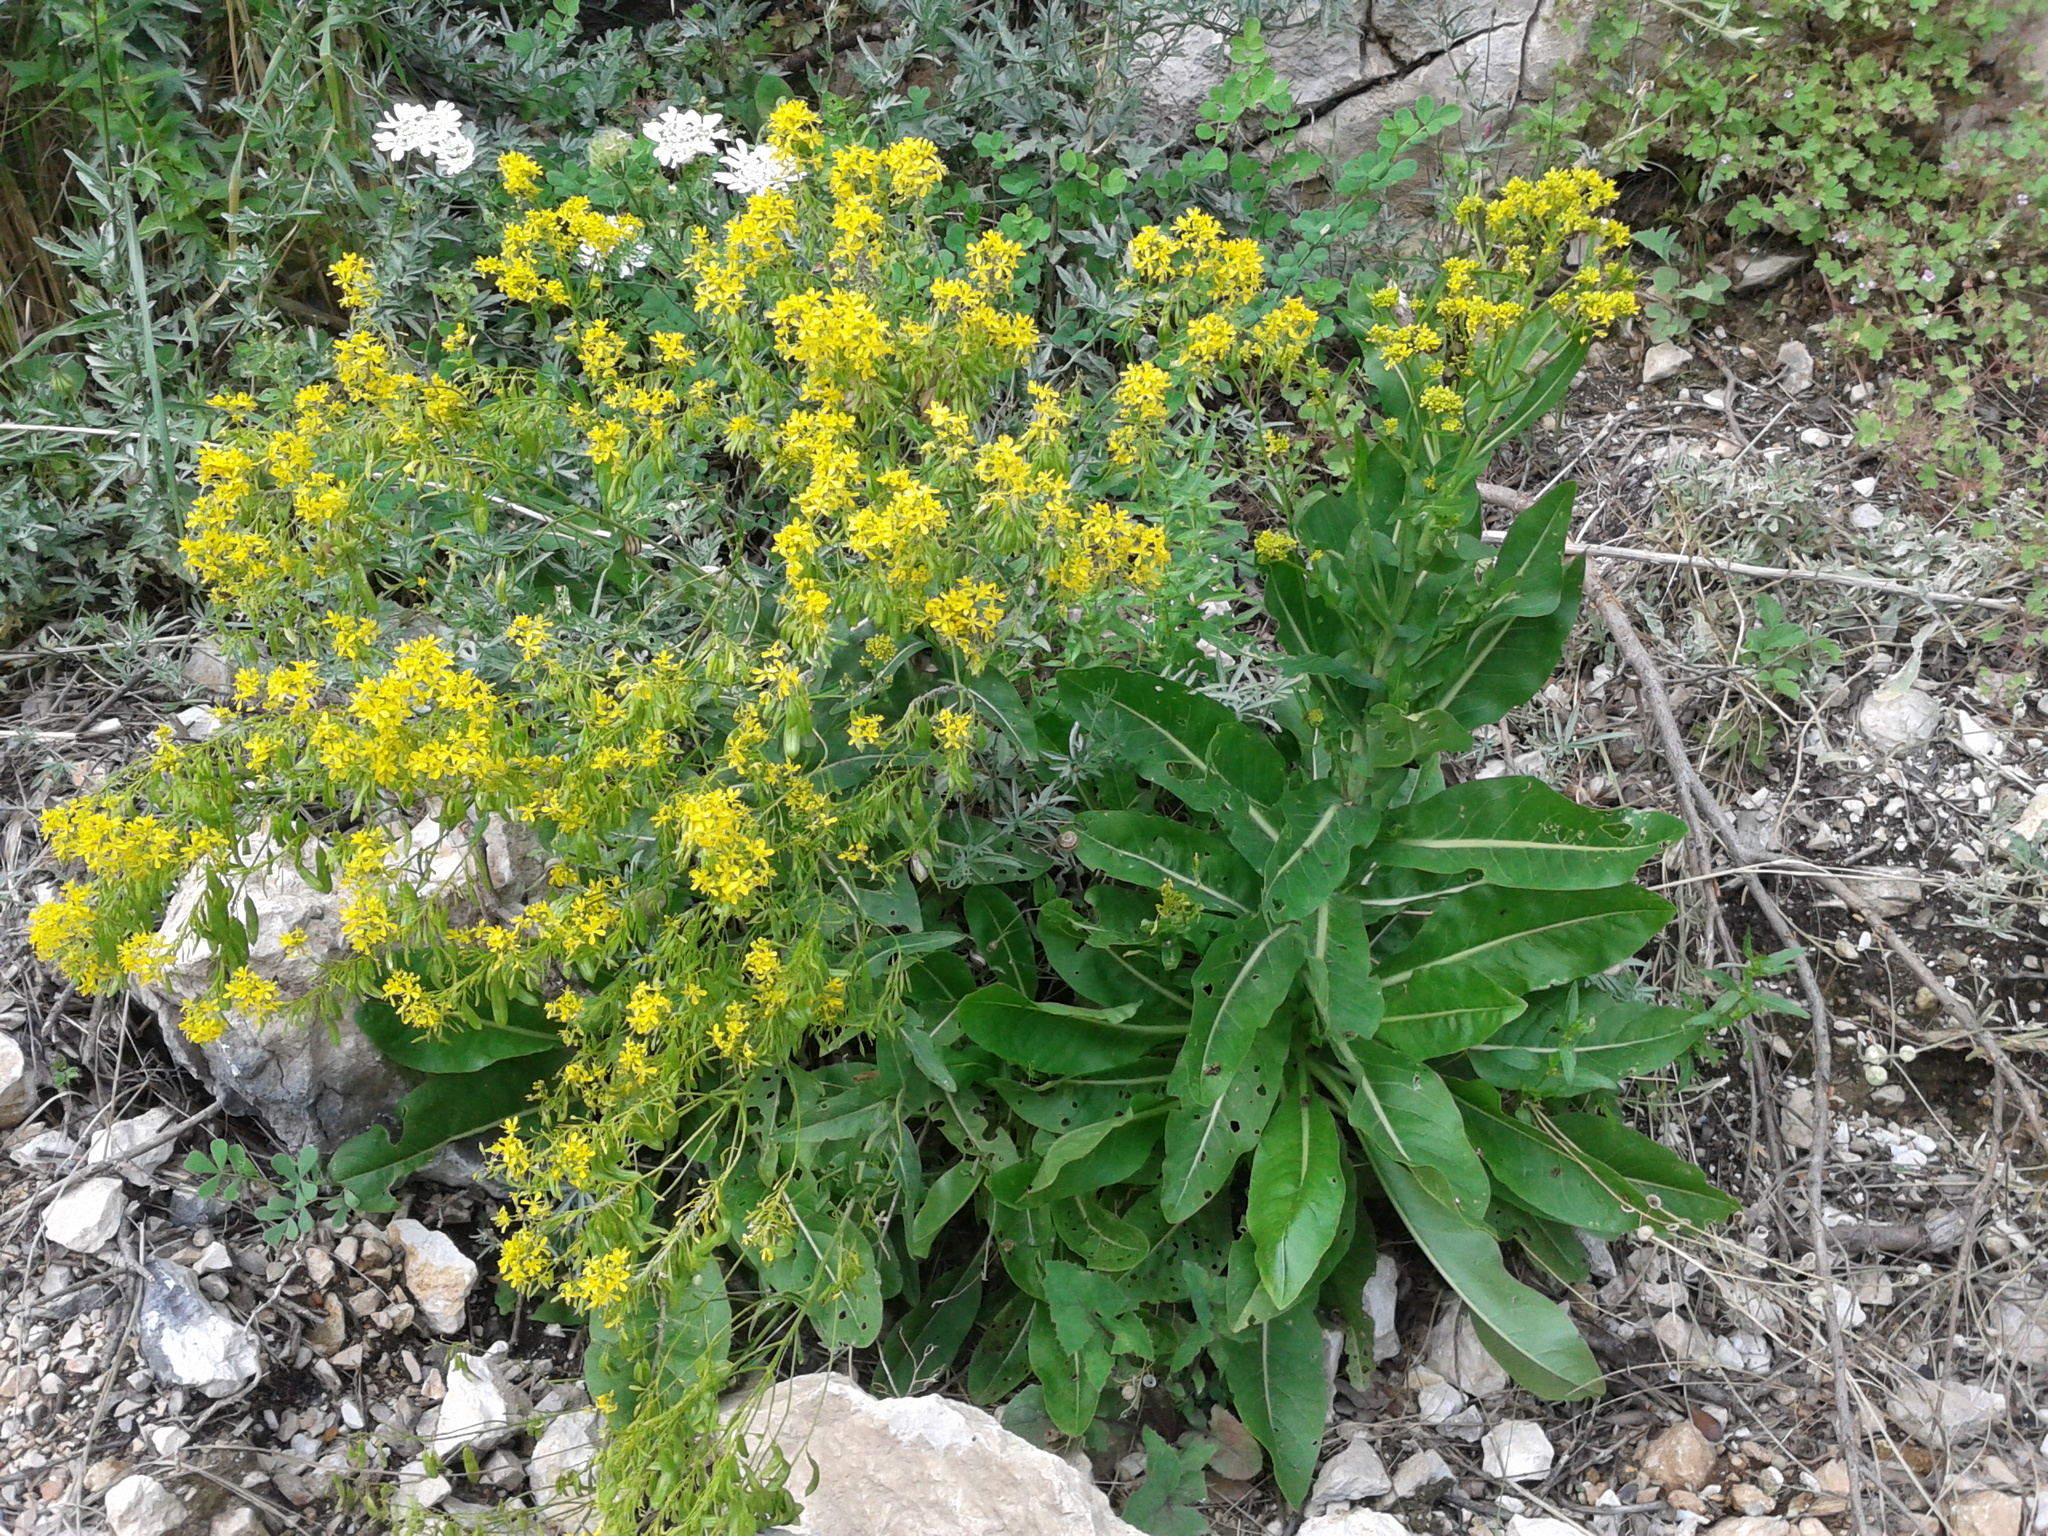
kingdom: Plantae
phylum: Tracheophyta
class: Magnoliopsida
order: Brassicales
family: Brassicaceae
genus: Isatis
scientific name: Isatis tinctoria
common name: Woad
